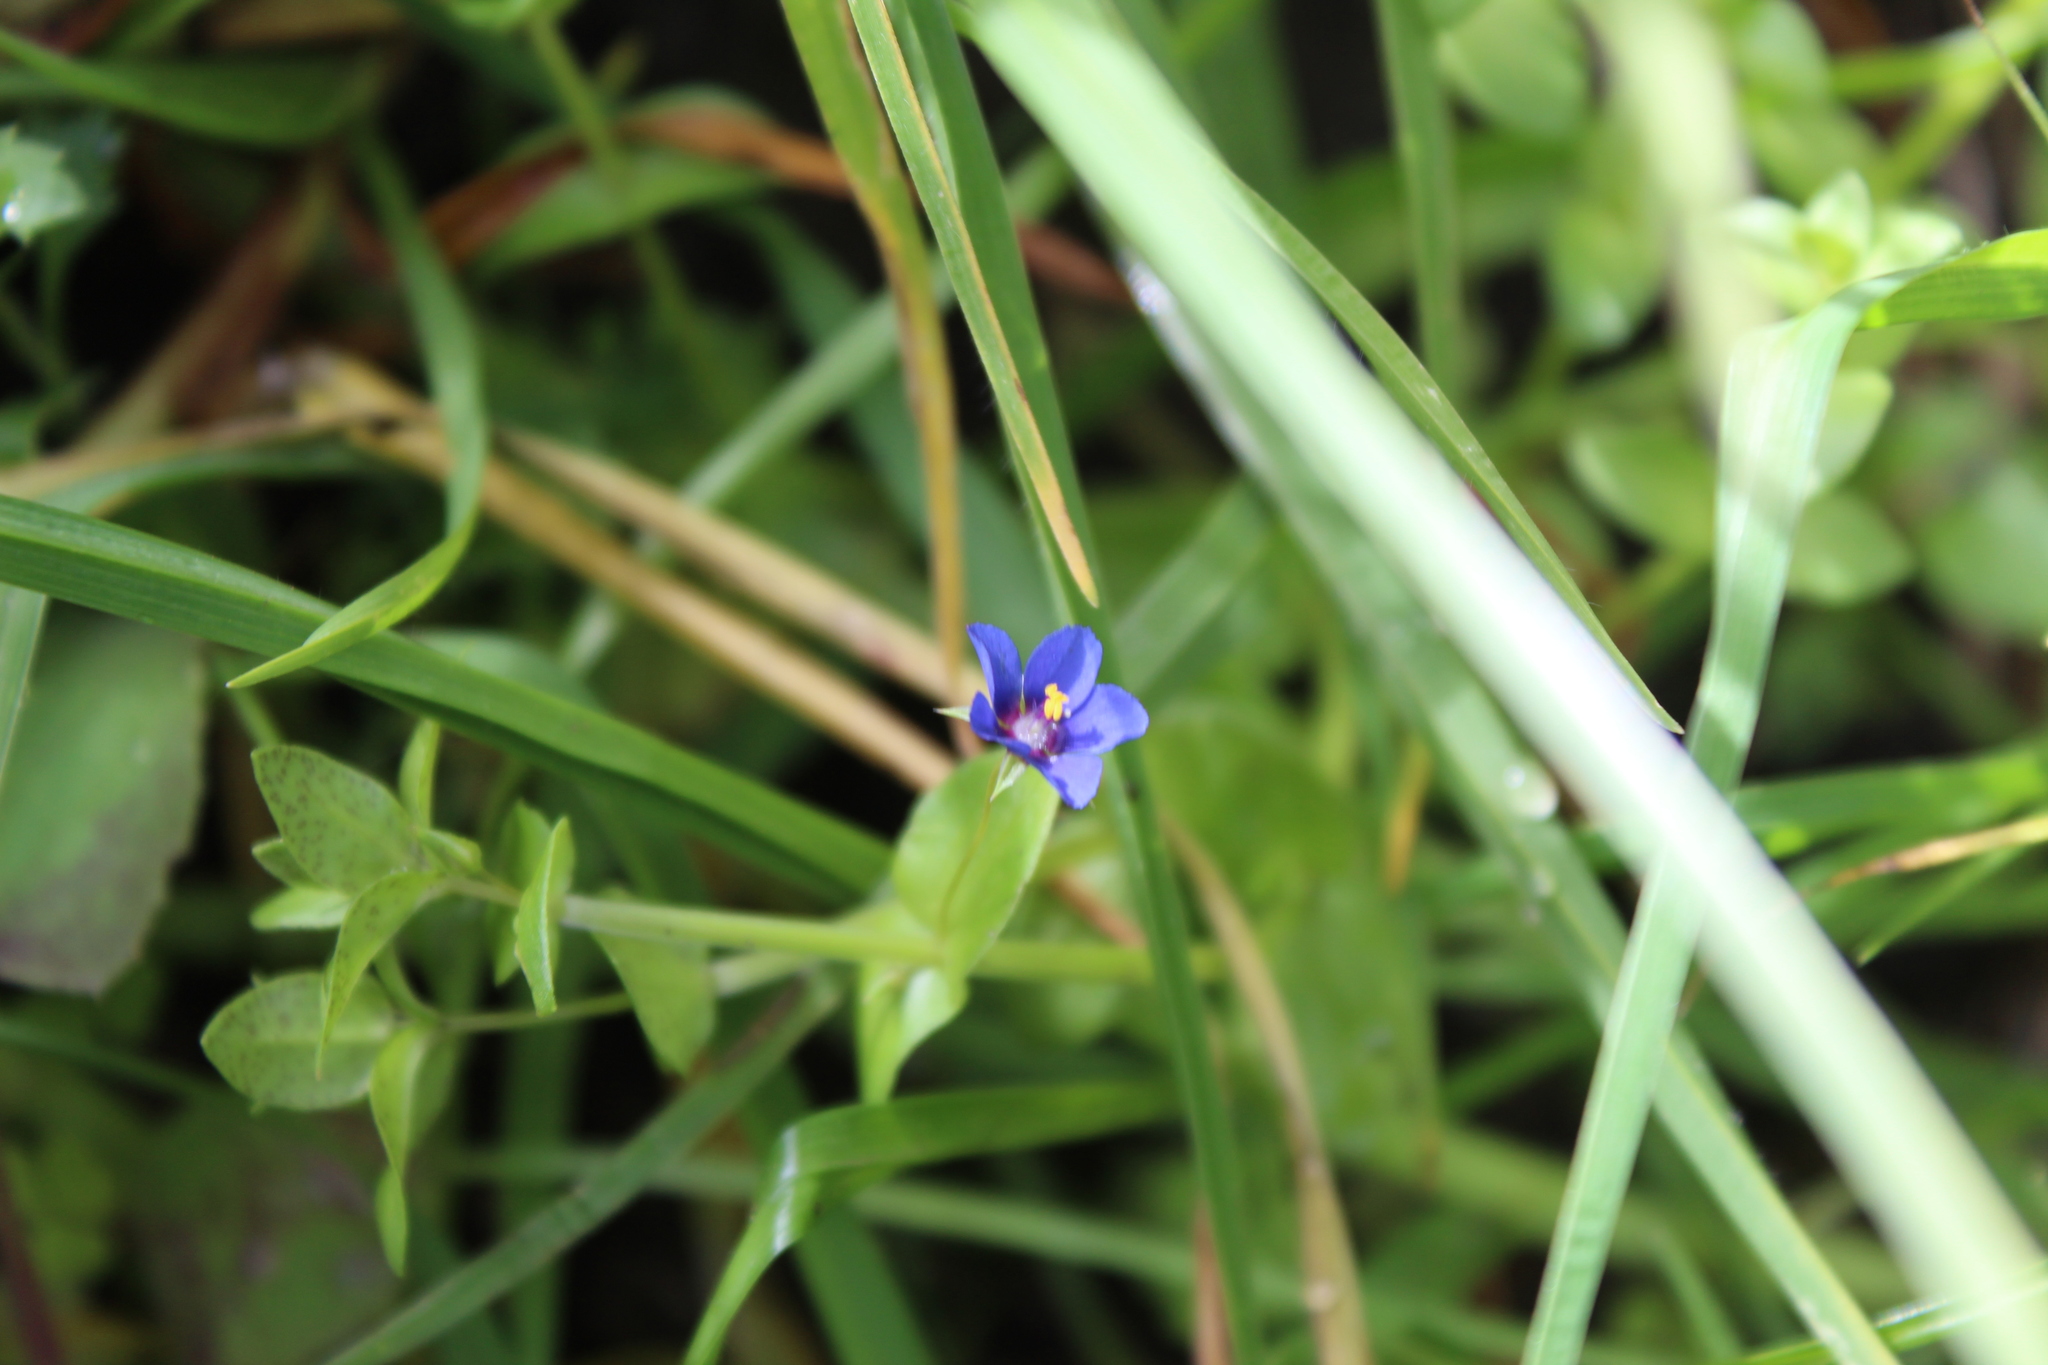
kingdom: Plantae
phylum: Tracheophyta
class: Magnoliopsida
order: Ericales
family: Primulaceae
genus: Lysimachia
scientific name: Lysimachia arvensis
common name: Scarlet pimpernel
